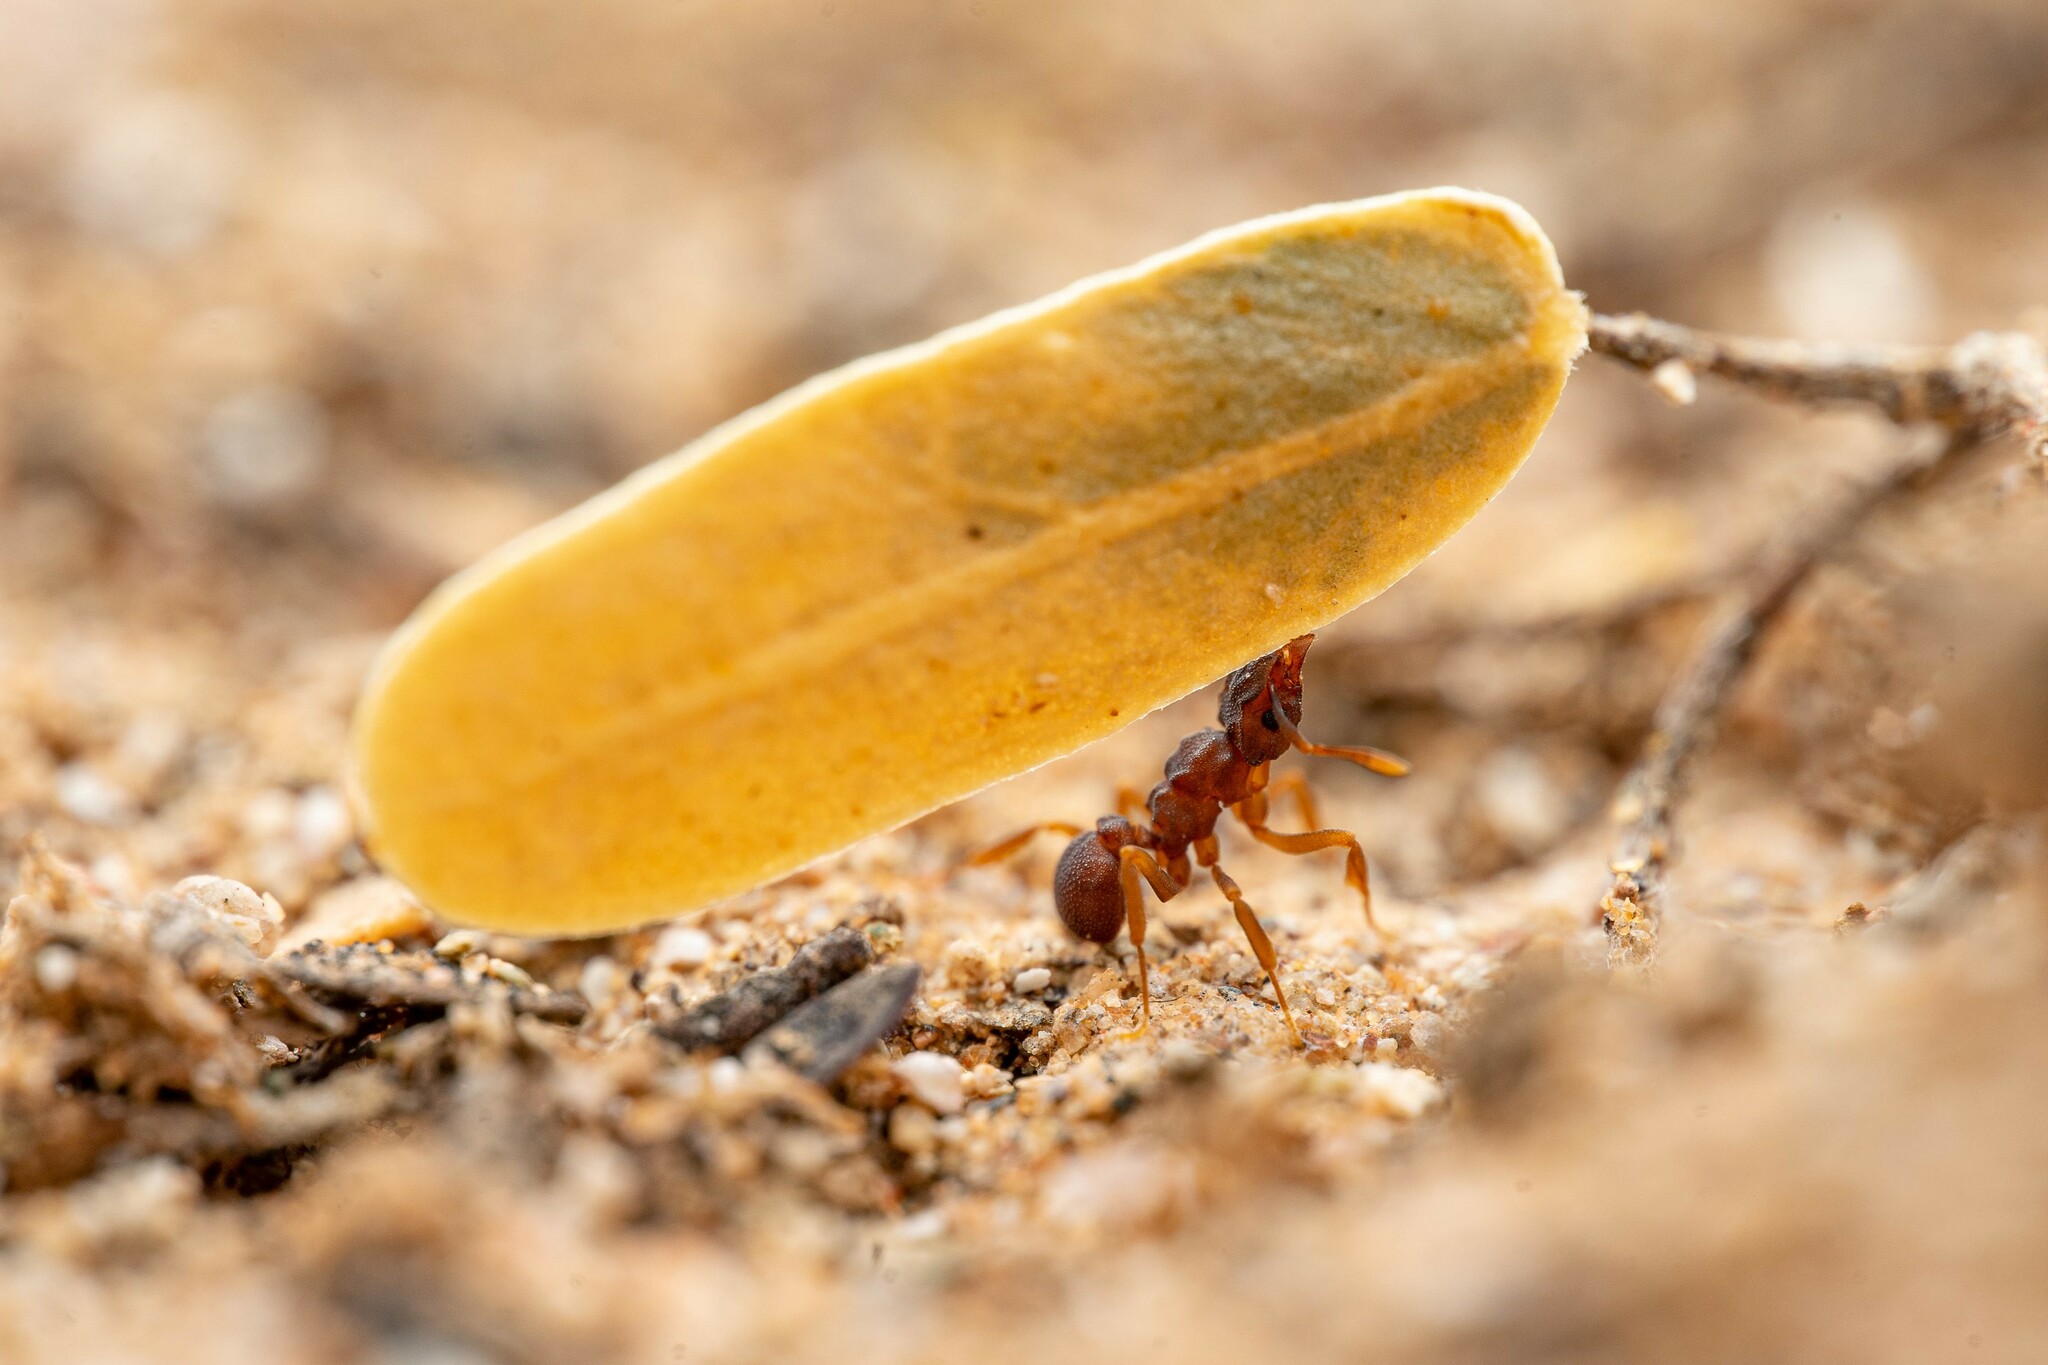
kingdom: Animalia
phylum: Arthropoda
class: Insecta
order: Hymenoptera
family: Formicidae
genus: Cyphomyrmex
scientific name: Cyphomyrmex flavidus
